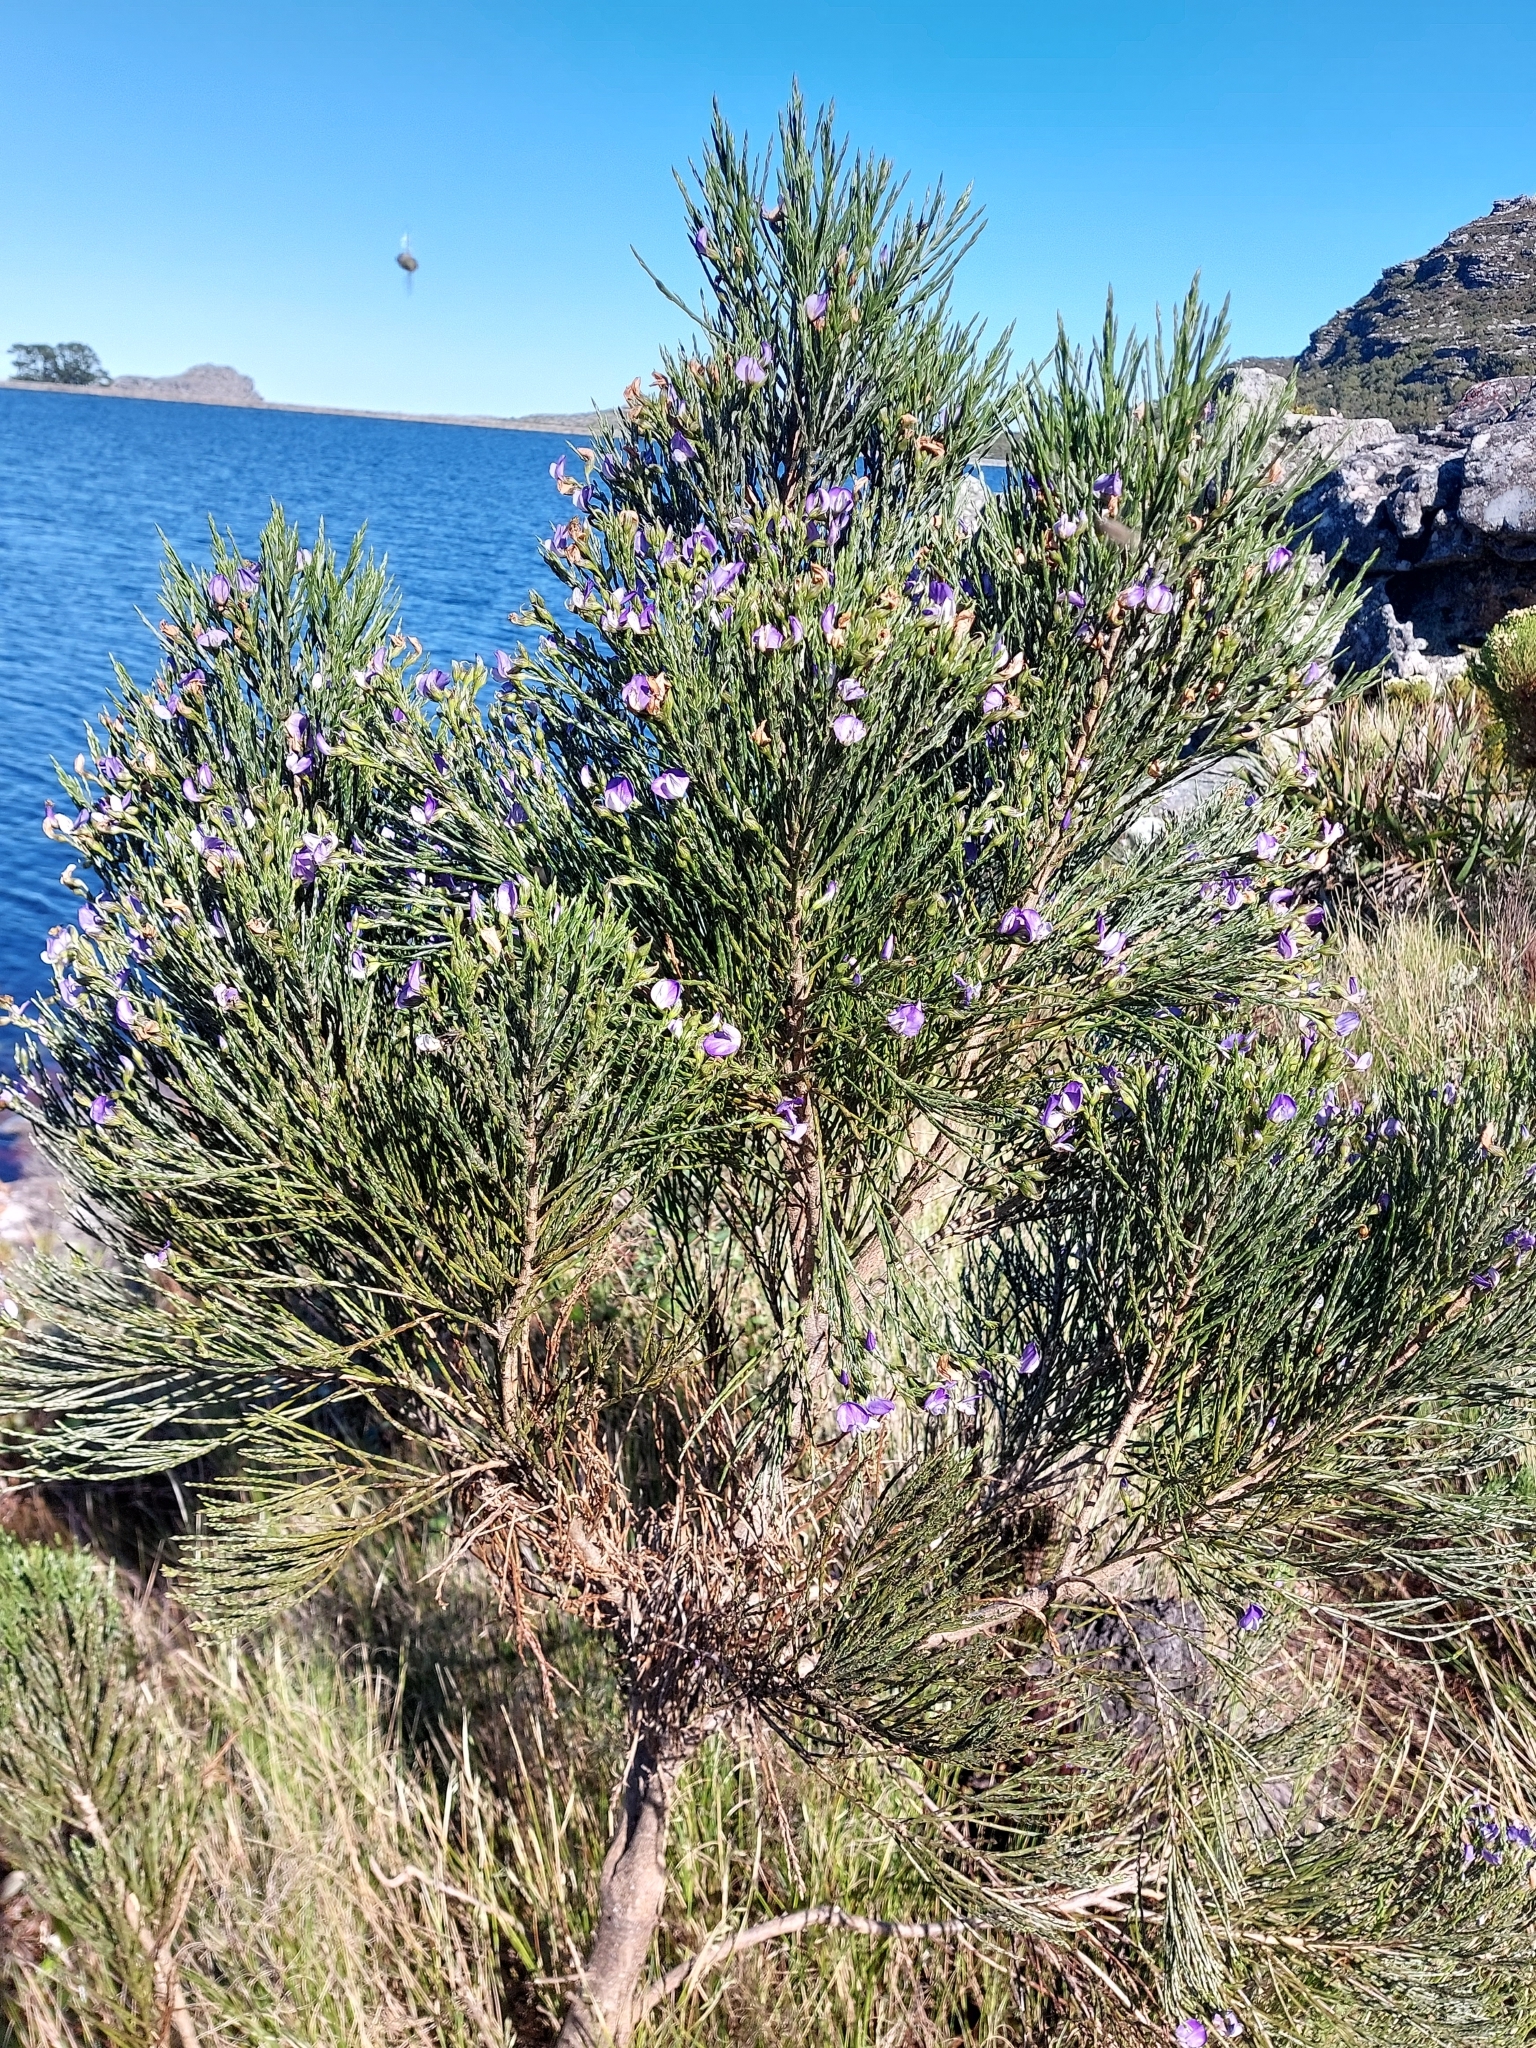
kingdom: Plantae
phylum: Tracheophyta
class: Magnoliopsida
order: Fabales
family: Fabaceae
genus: Psoralea
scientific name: Psoralea congesta
